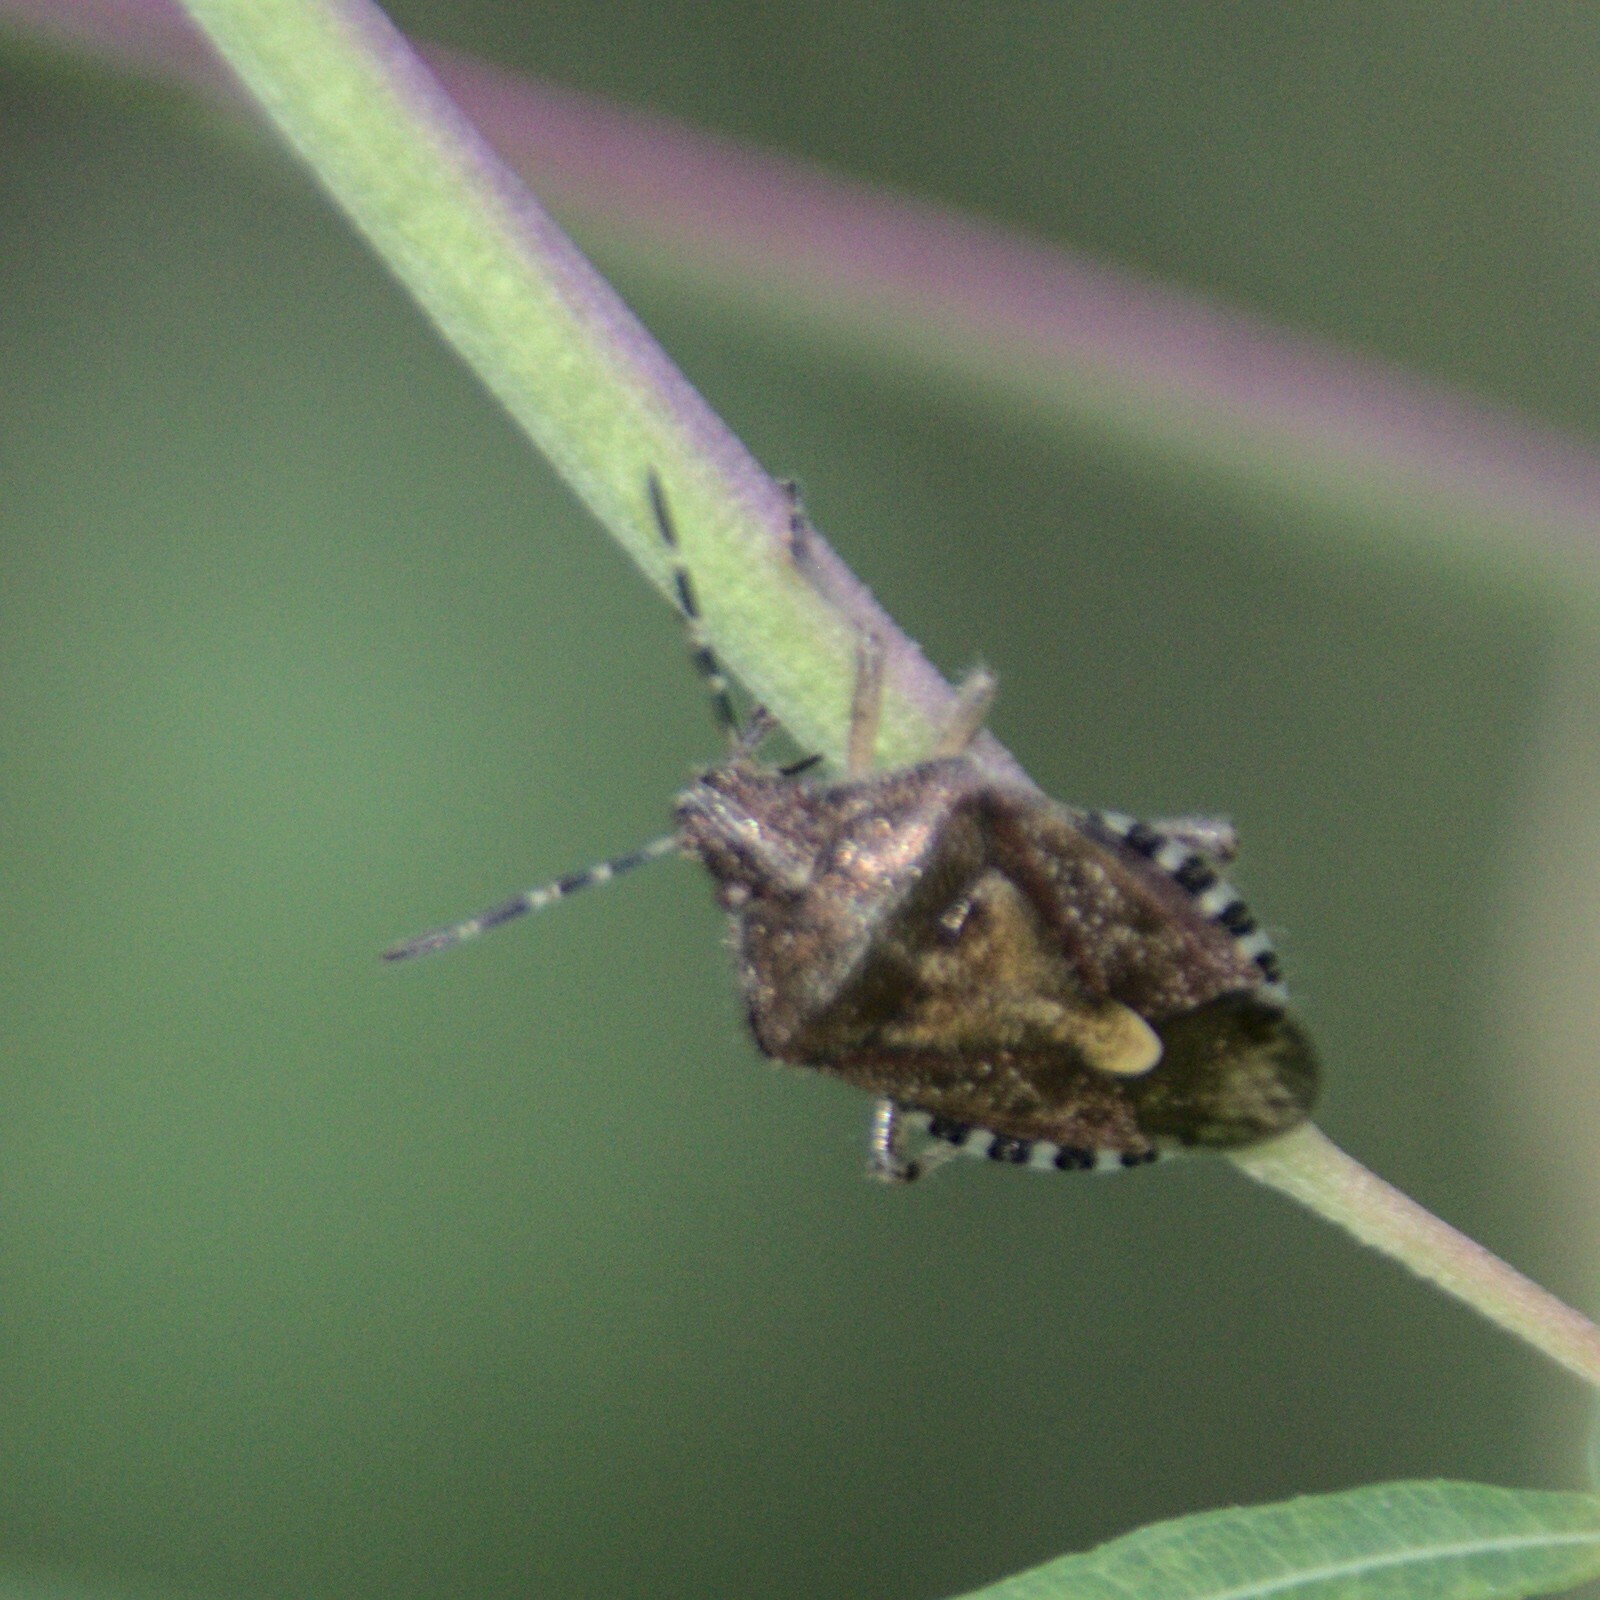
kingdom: Animalia
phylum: Arthropoda
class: Insecta
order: Hemiptera
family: Pentatomidae
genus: Dolycoris
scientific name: Dolycoris baccarum
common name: Sloe bug
